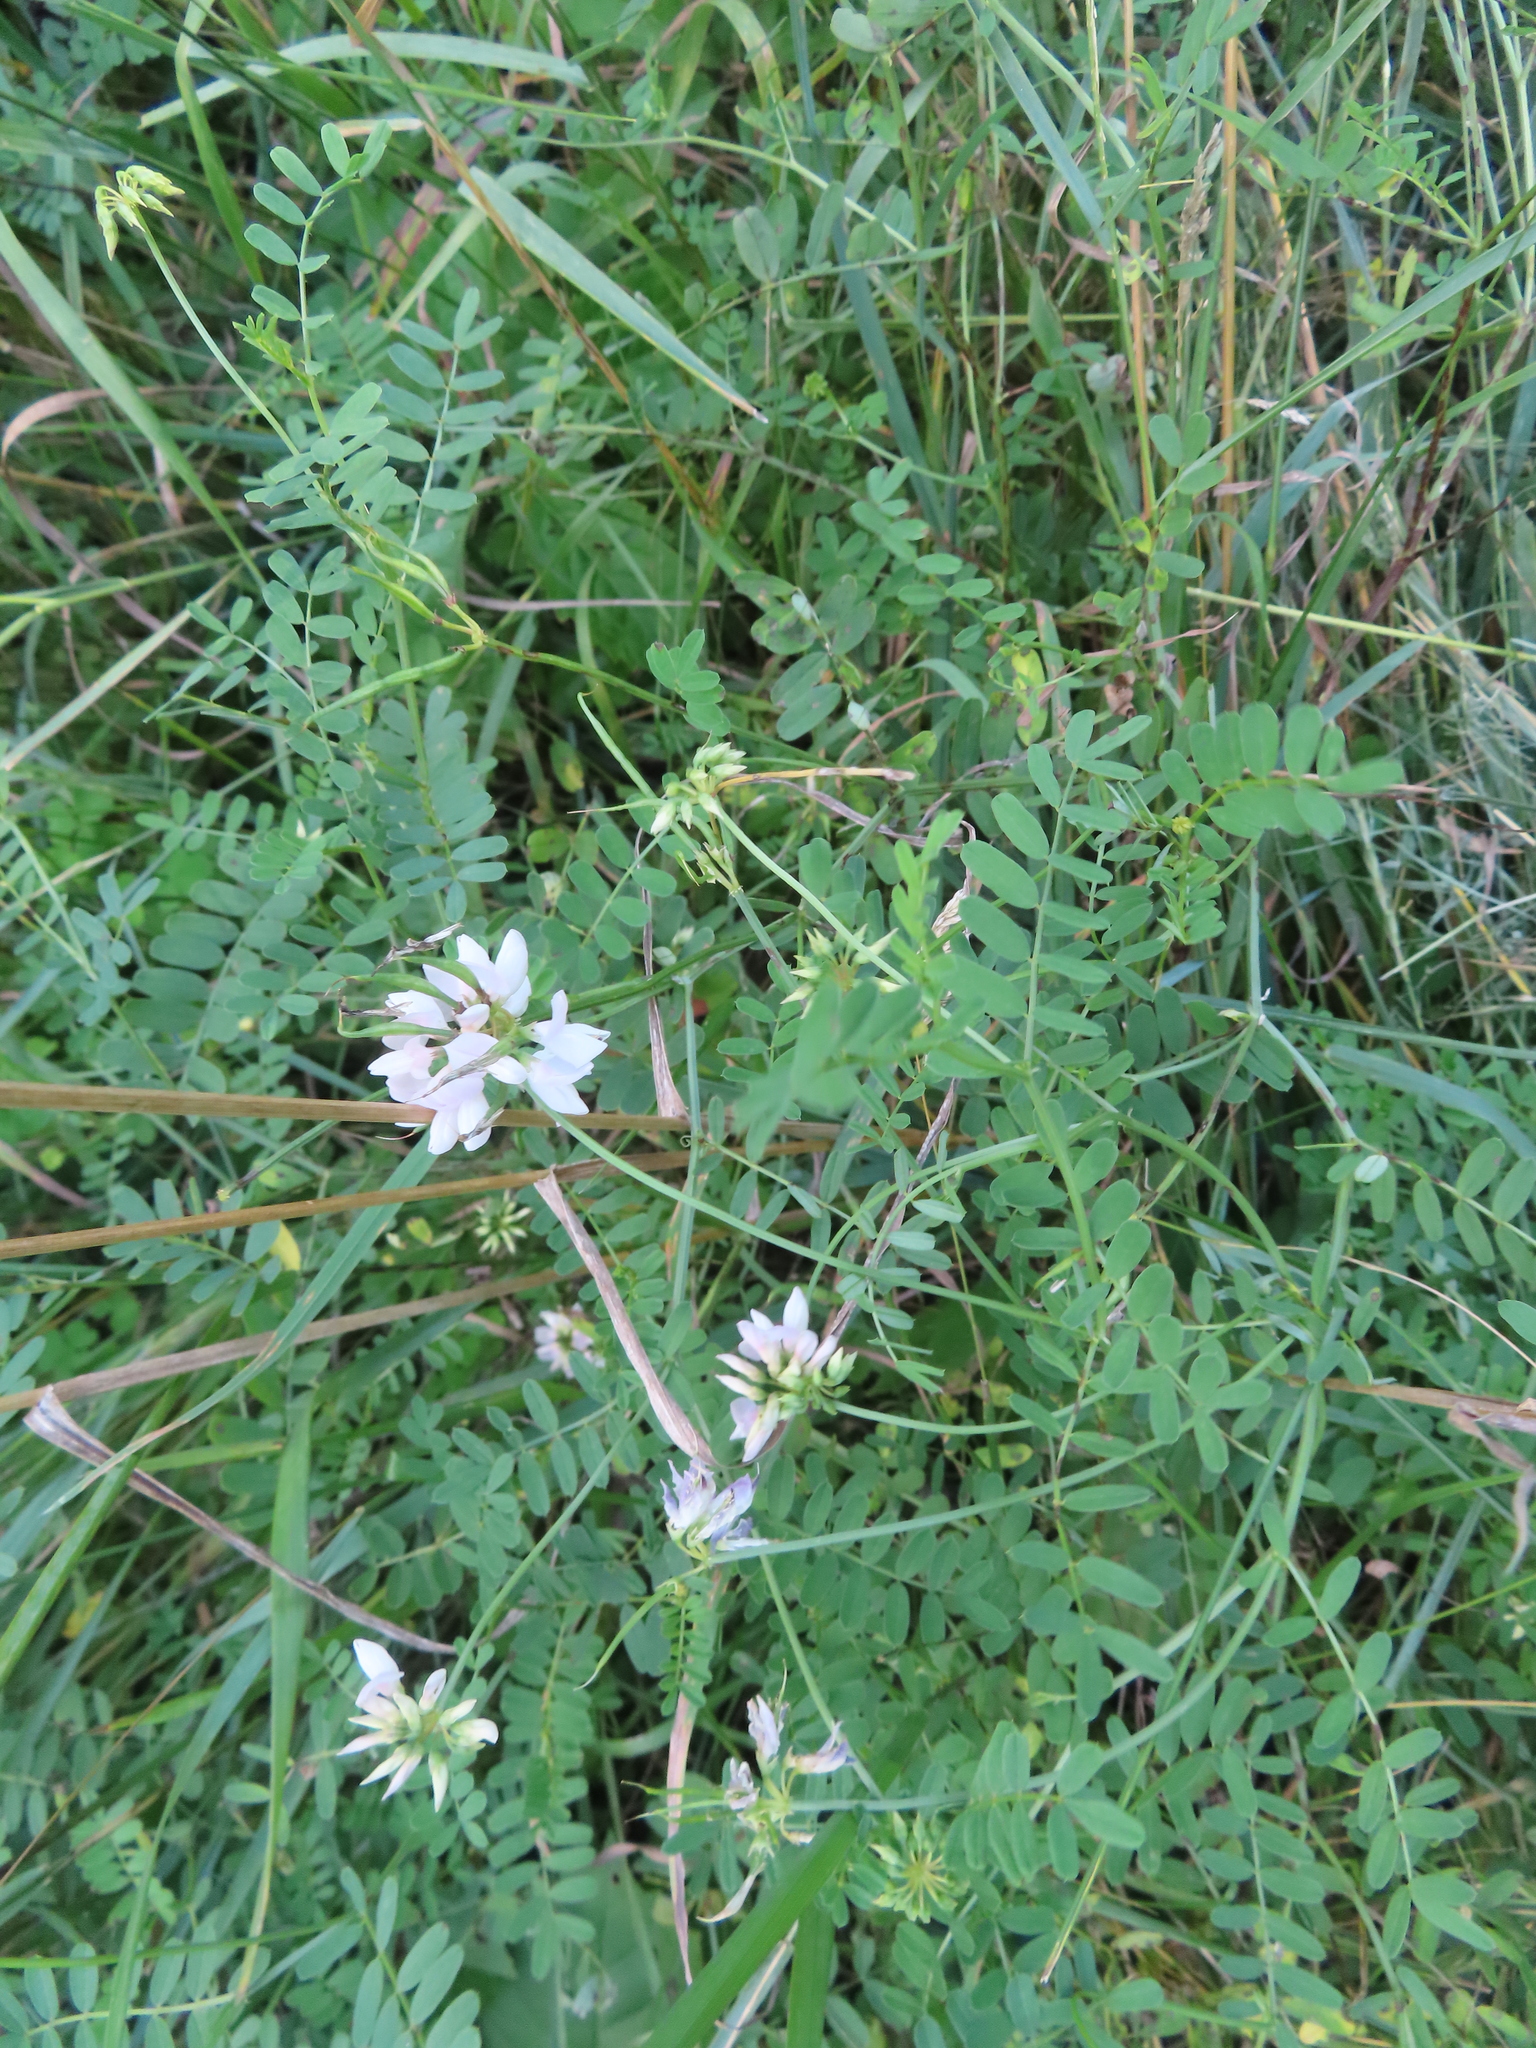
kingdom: Plantae
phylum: Tracheophyta
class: Magnoliopsida
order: Fabales
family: Fabaceae
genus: Coronilla
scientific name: Coronilla varia
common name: Crownvetch
